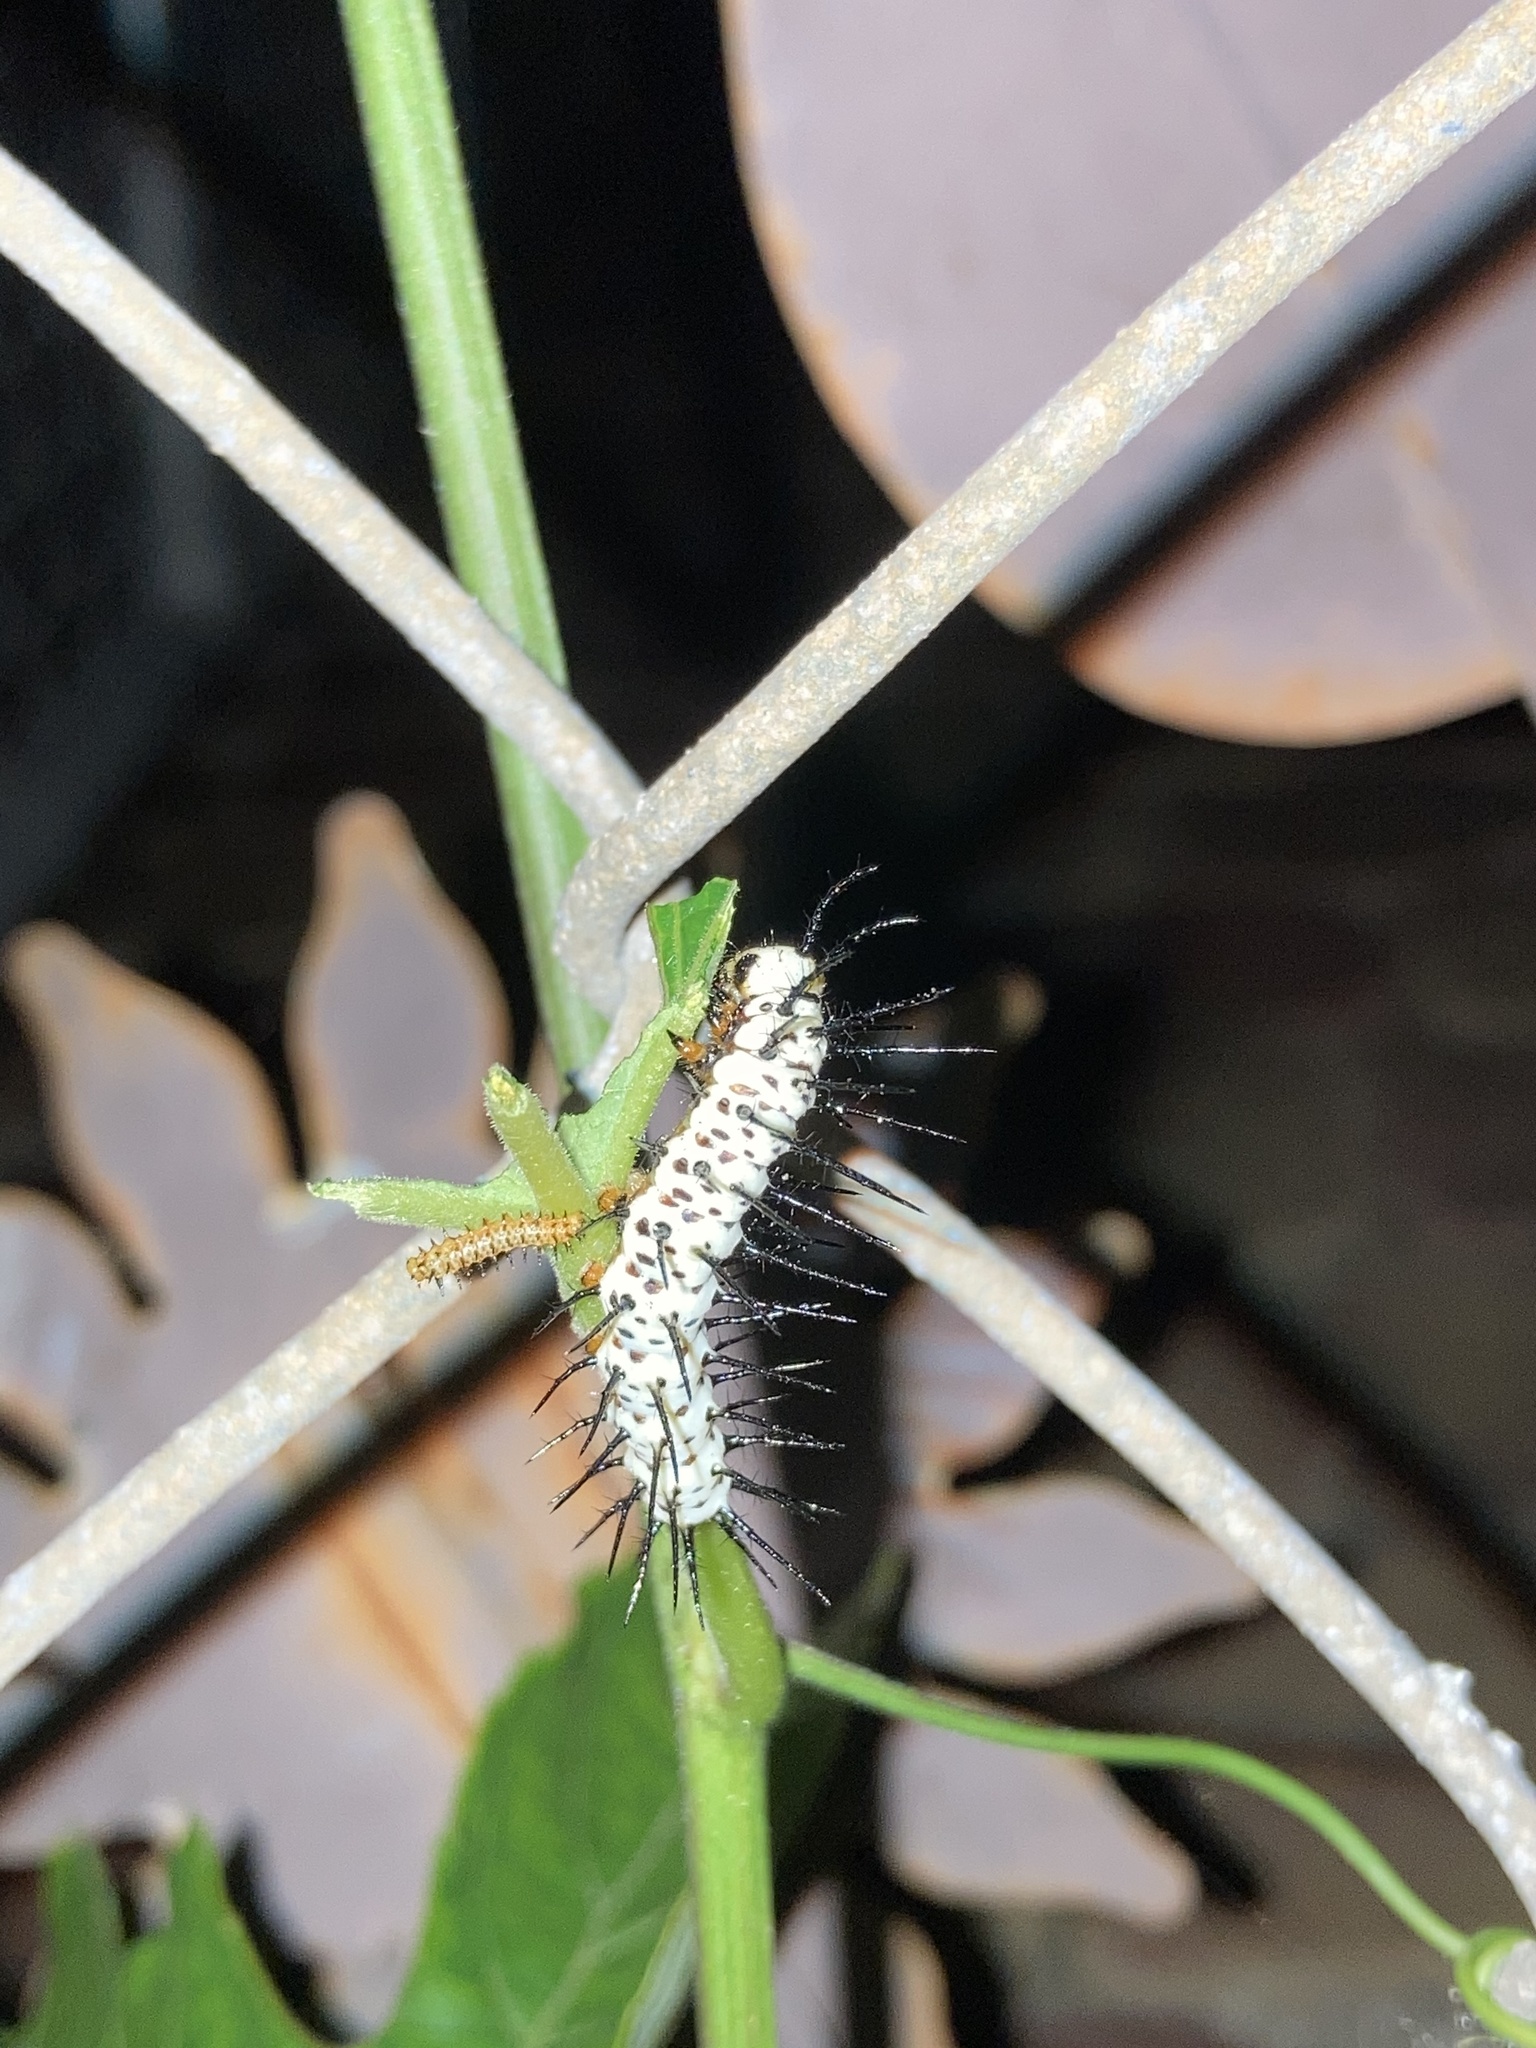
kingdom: Animalia
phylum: Arthropoda
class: Insecta
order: Lepidoptera
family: Nymphalidae
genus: Heliconius
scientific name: Heliconius charithonia
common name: Zebra long wing
